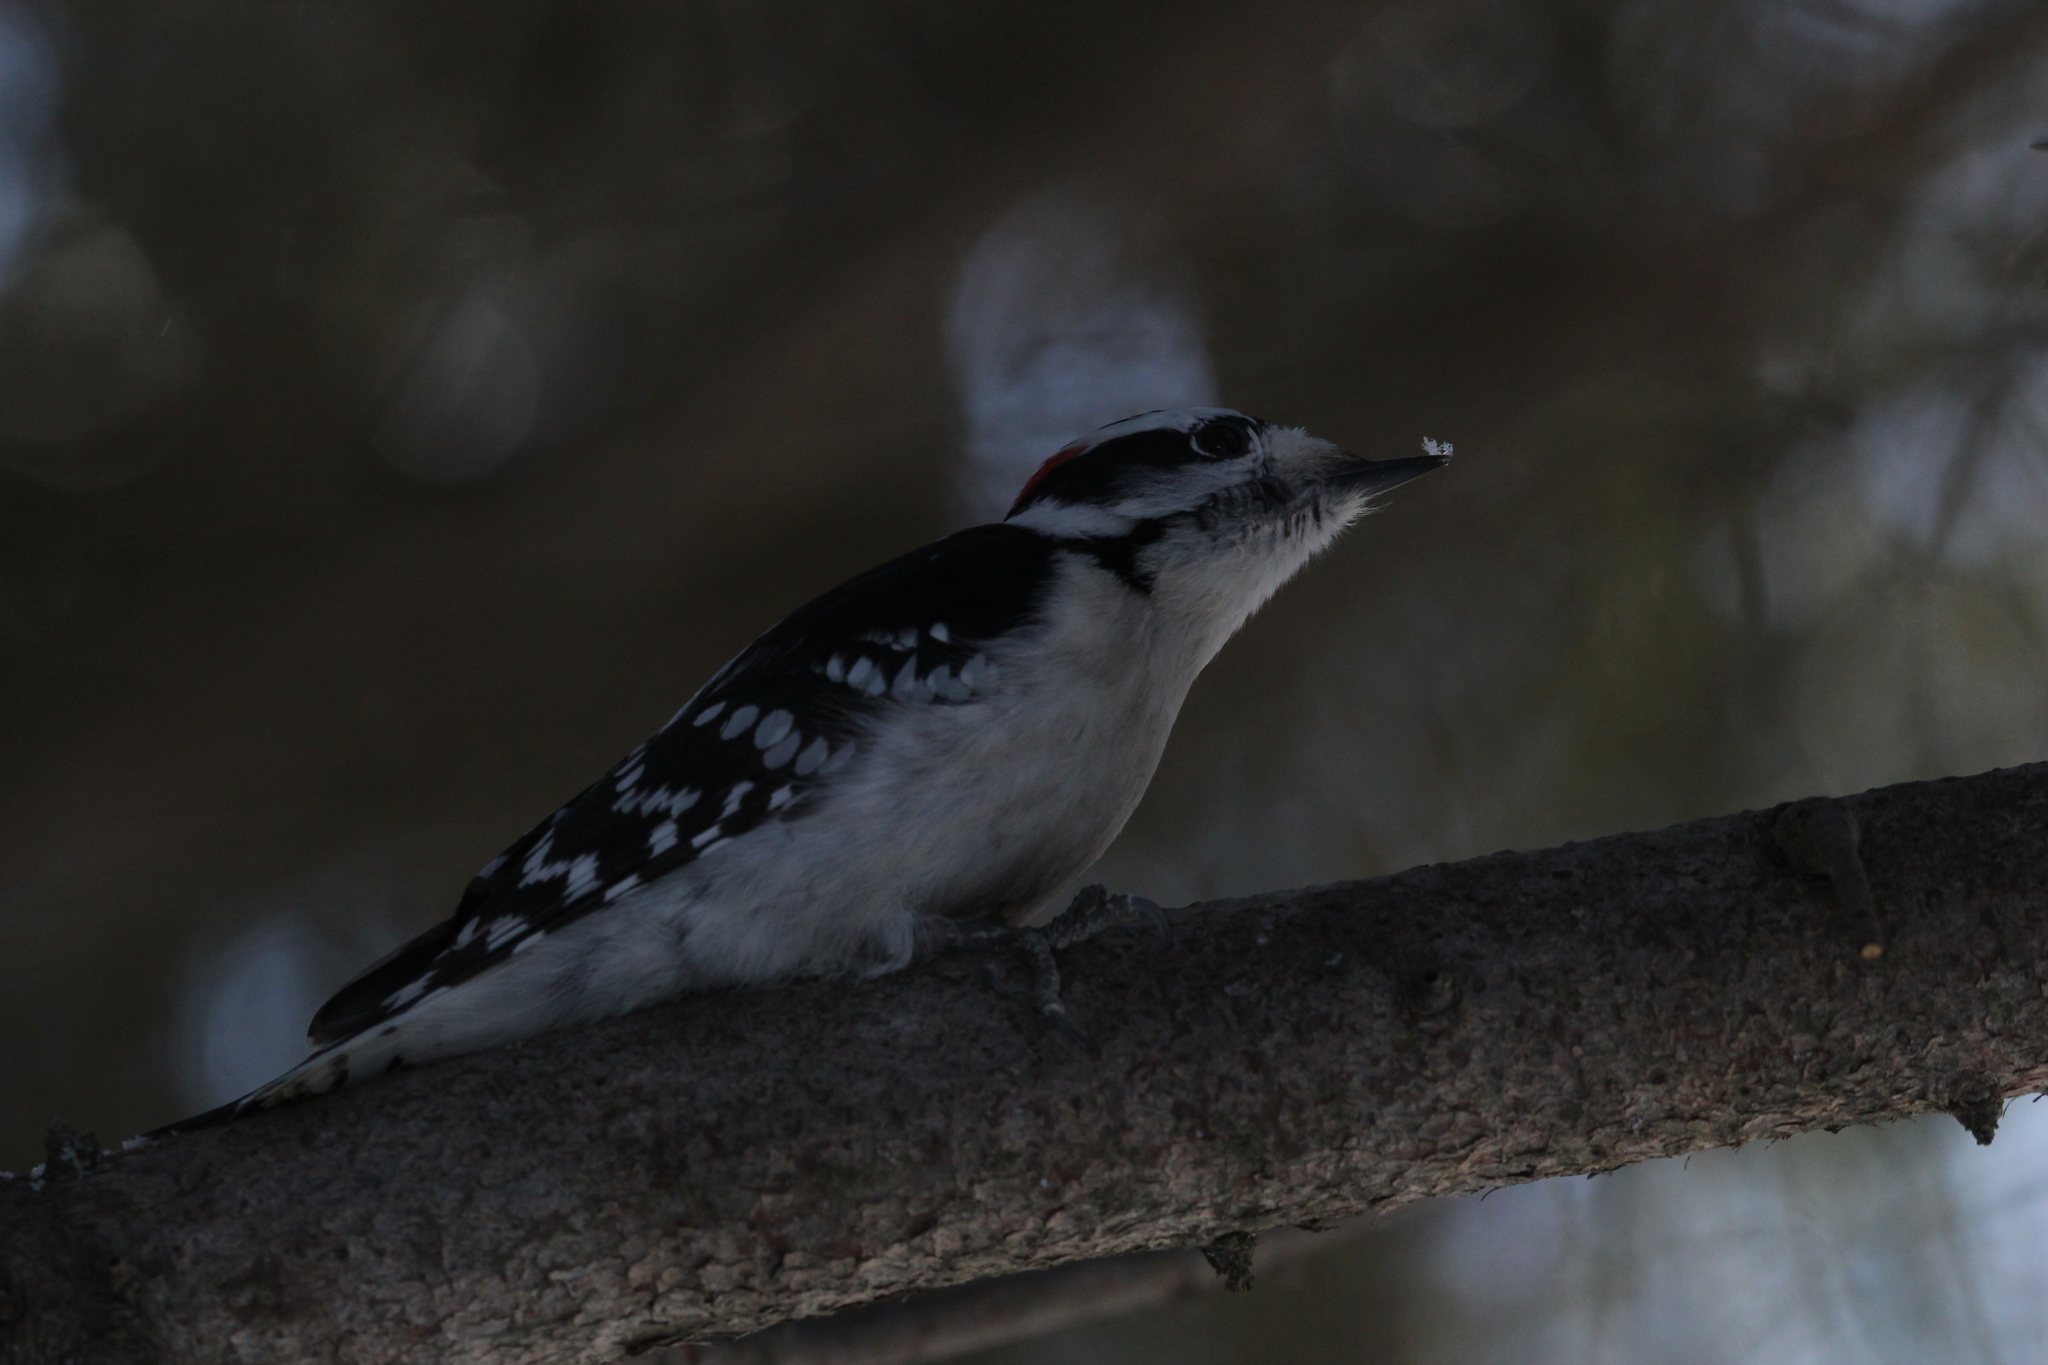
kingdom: Animalia
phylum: Chordata
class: Aves
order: Piciformes
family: Picidae
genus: Dryobates
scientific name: Dryobates pubescens
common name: Downy woodpecker
